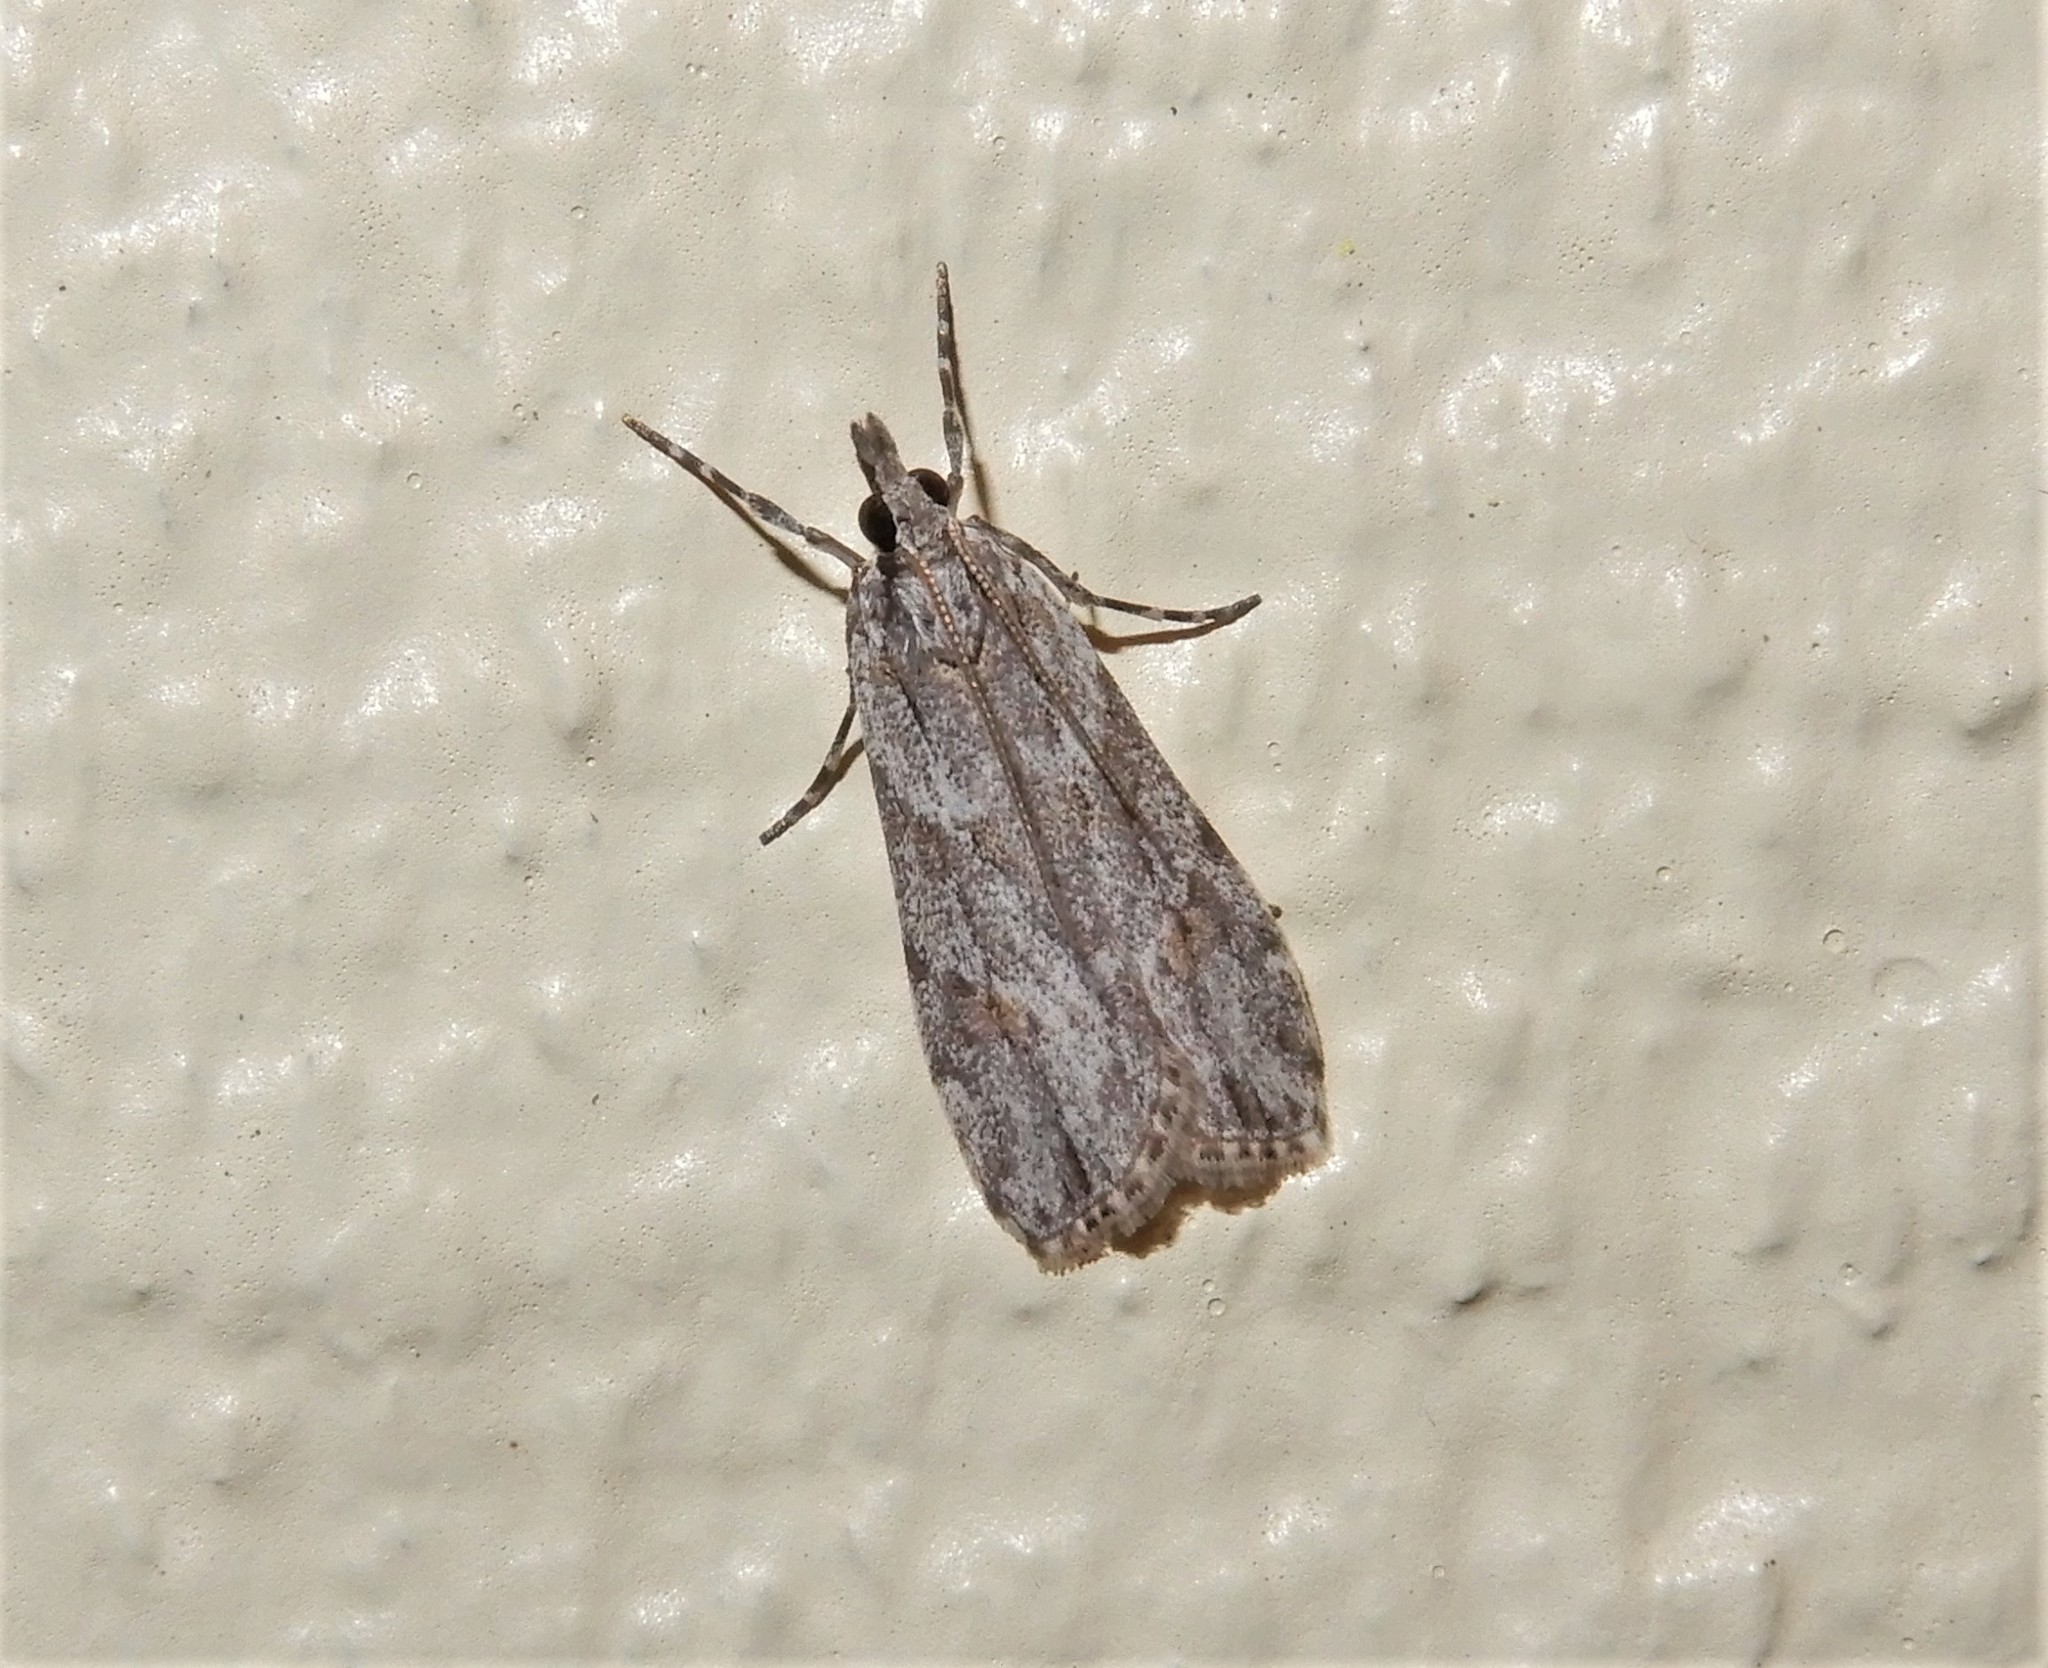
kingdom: Animalia
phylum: Arthropoda
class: Insecta
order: Lepidoptera
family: Crambidae
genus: Scoparia
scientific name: Scoparia chalicodes
